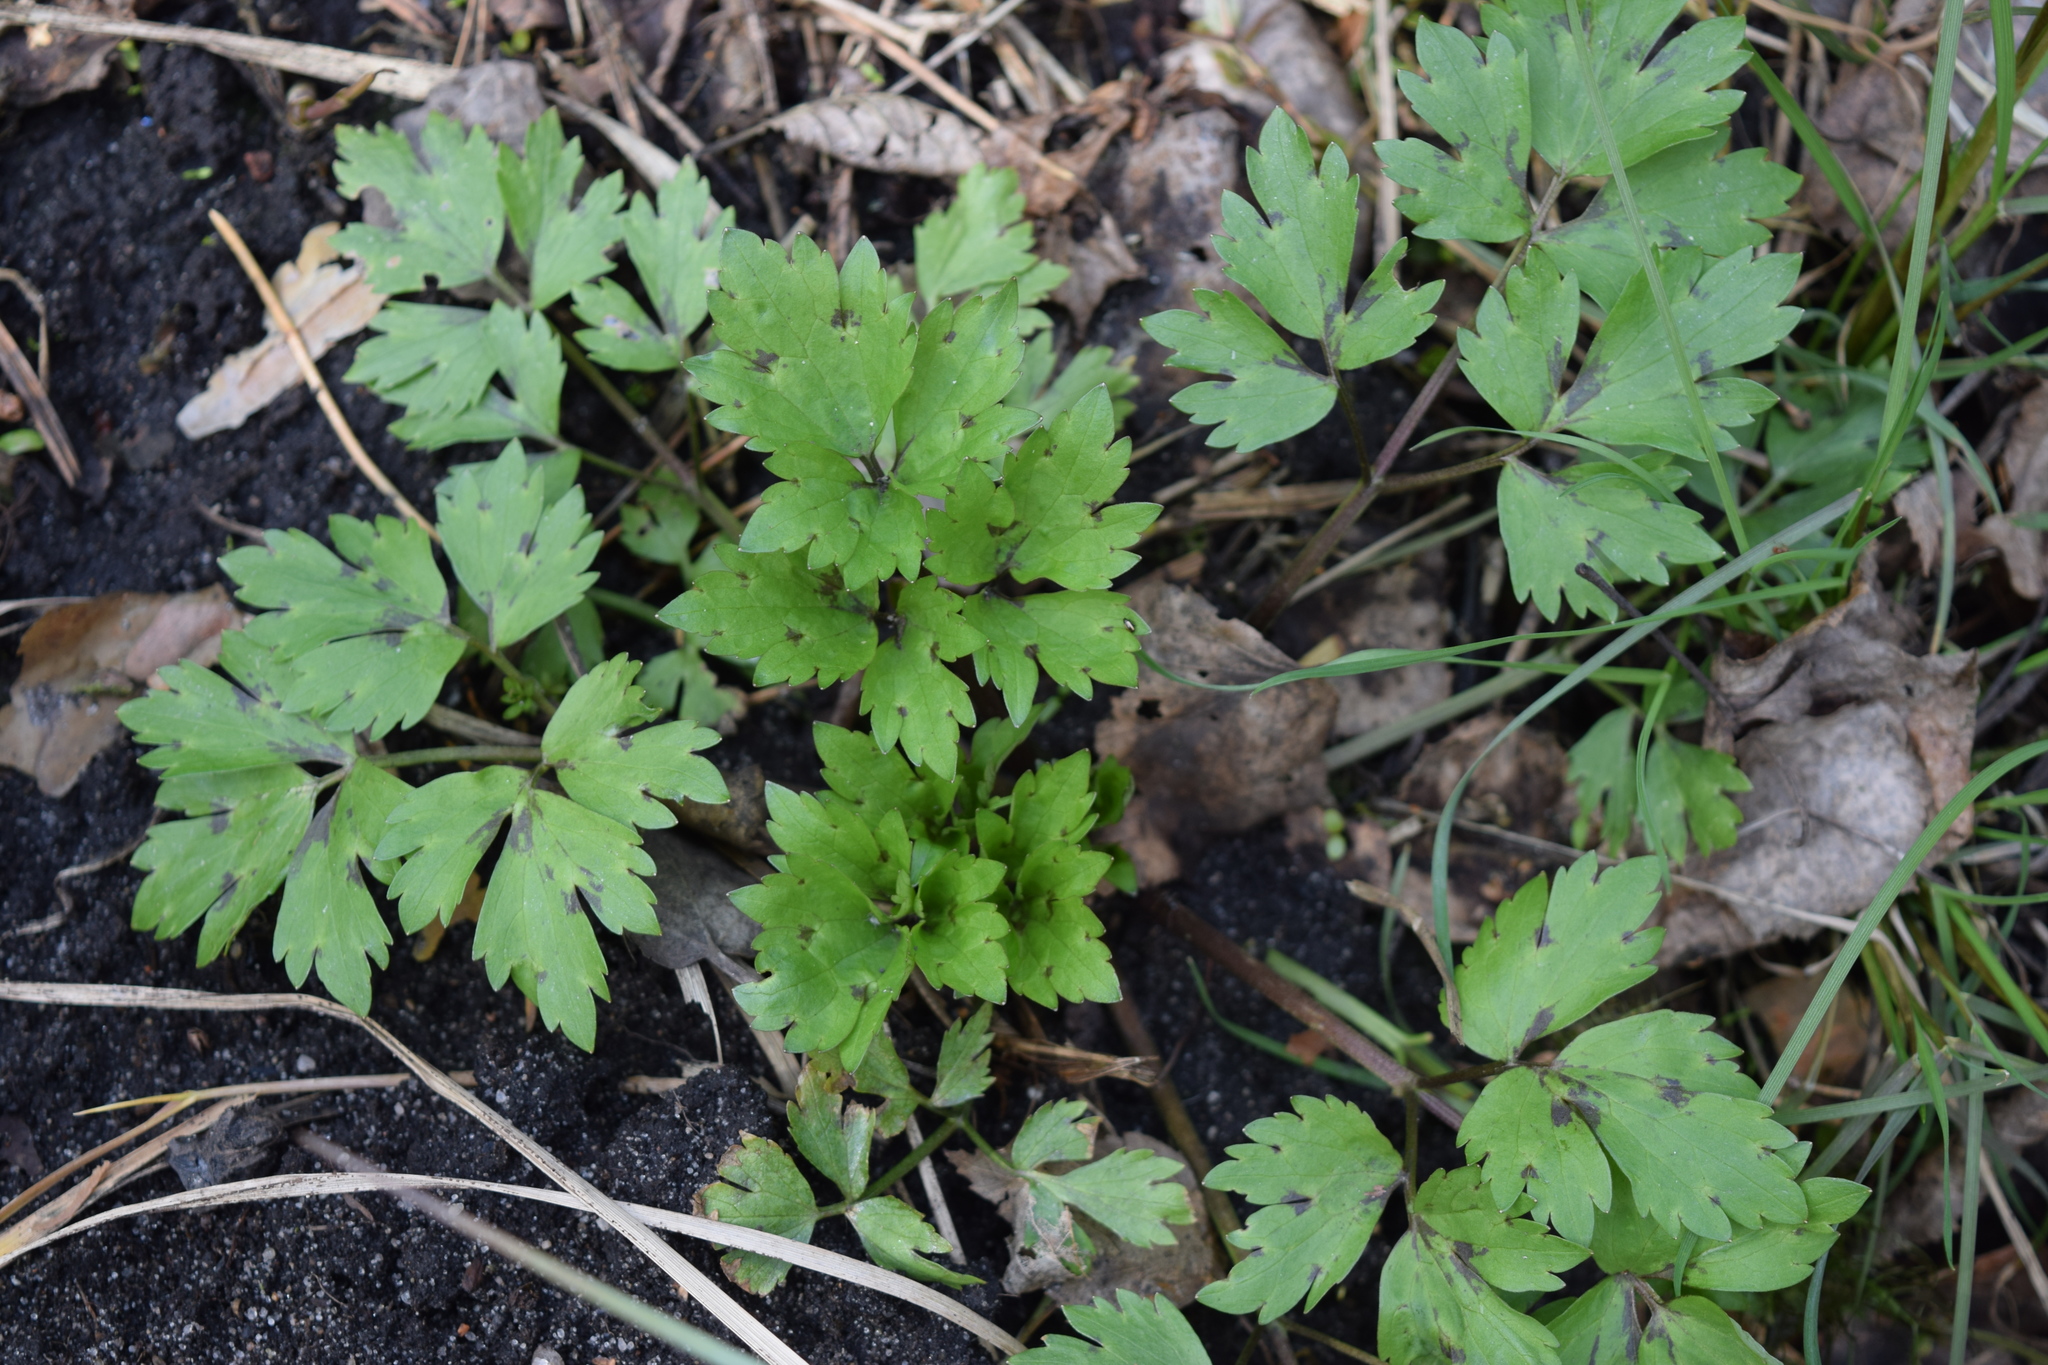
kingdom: Plantae
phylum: Tracheophyta
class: Magnoliopsida
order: Ranunculales
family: Ranunculaceae
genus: Ranunculus
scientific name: Ranunculus repens
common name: Creeping buttercup
